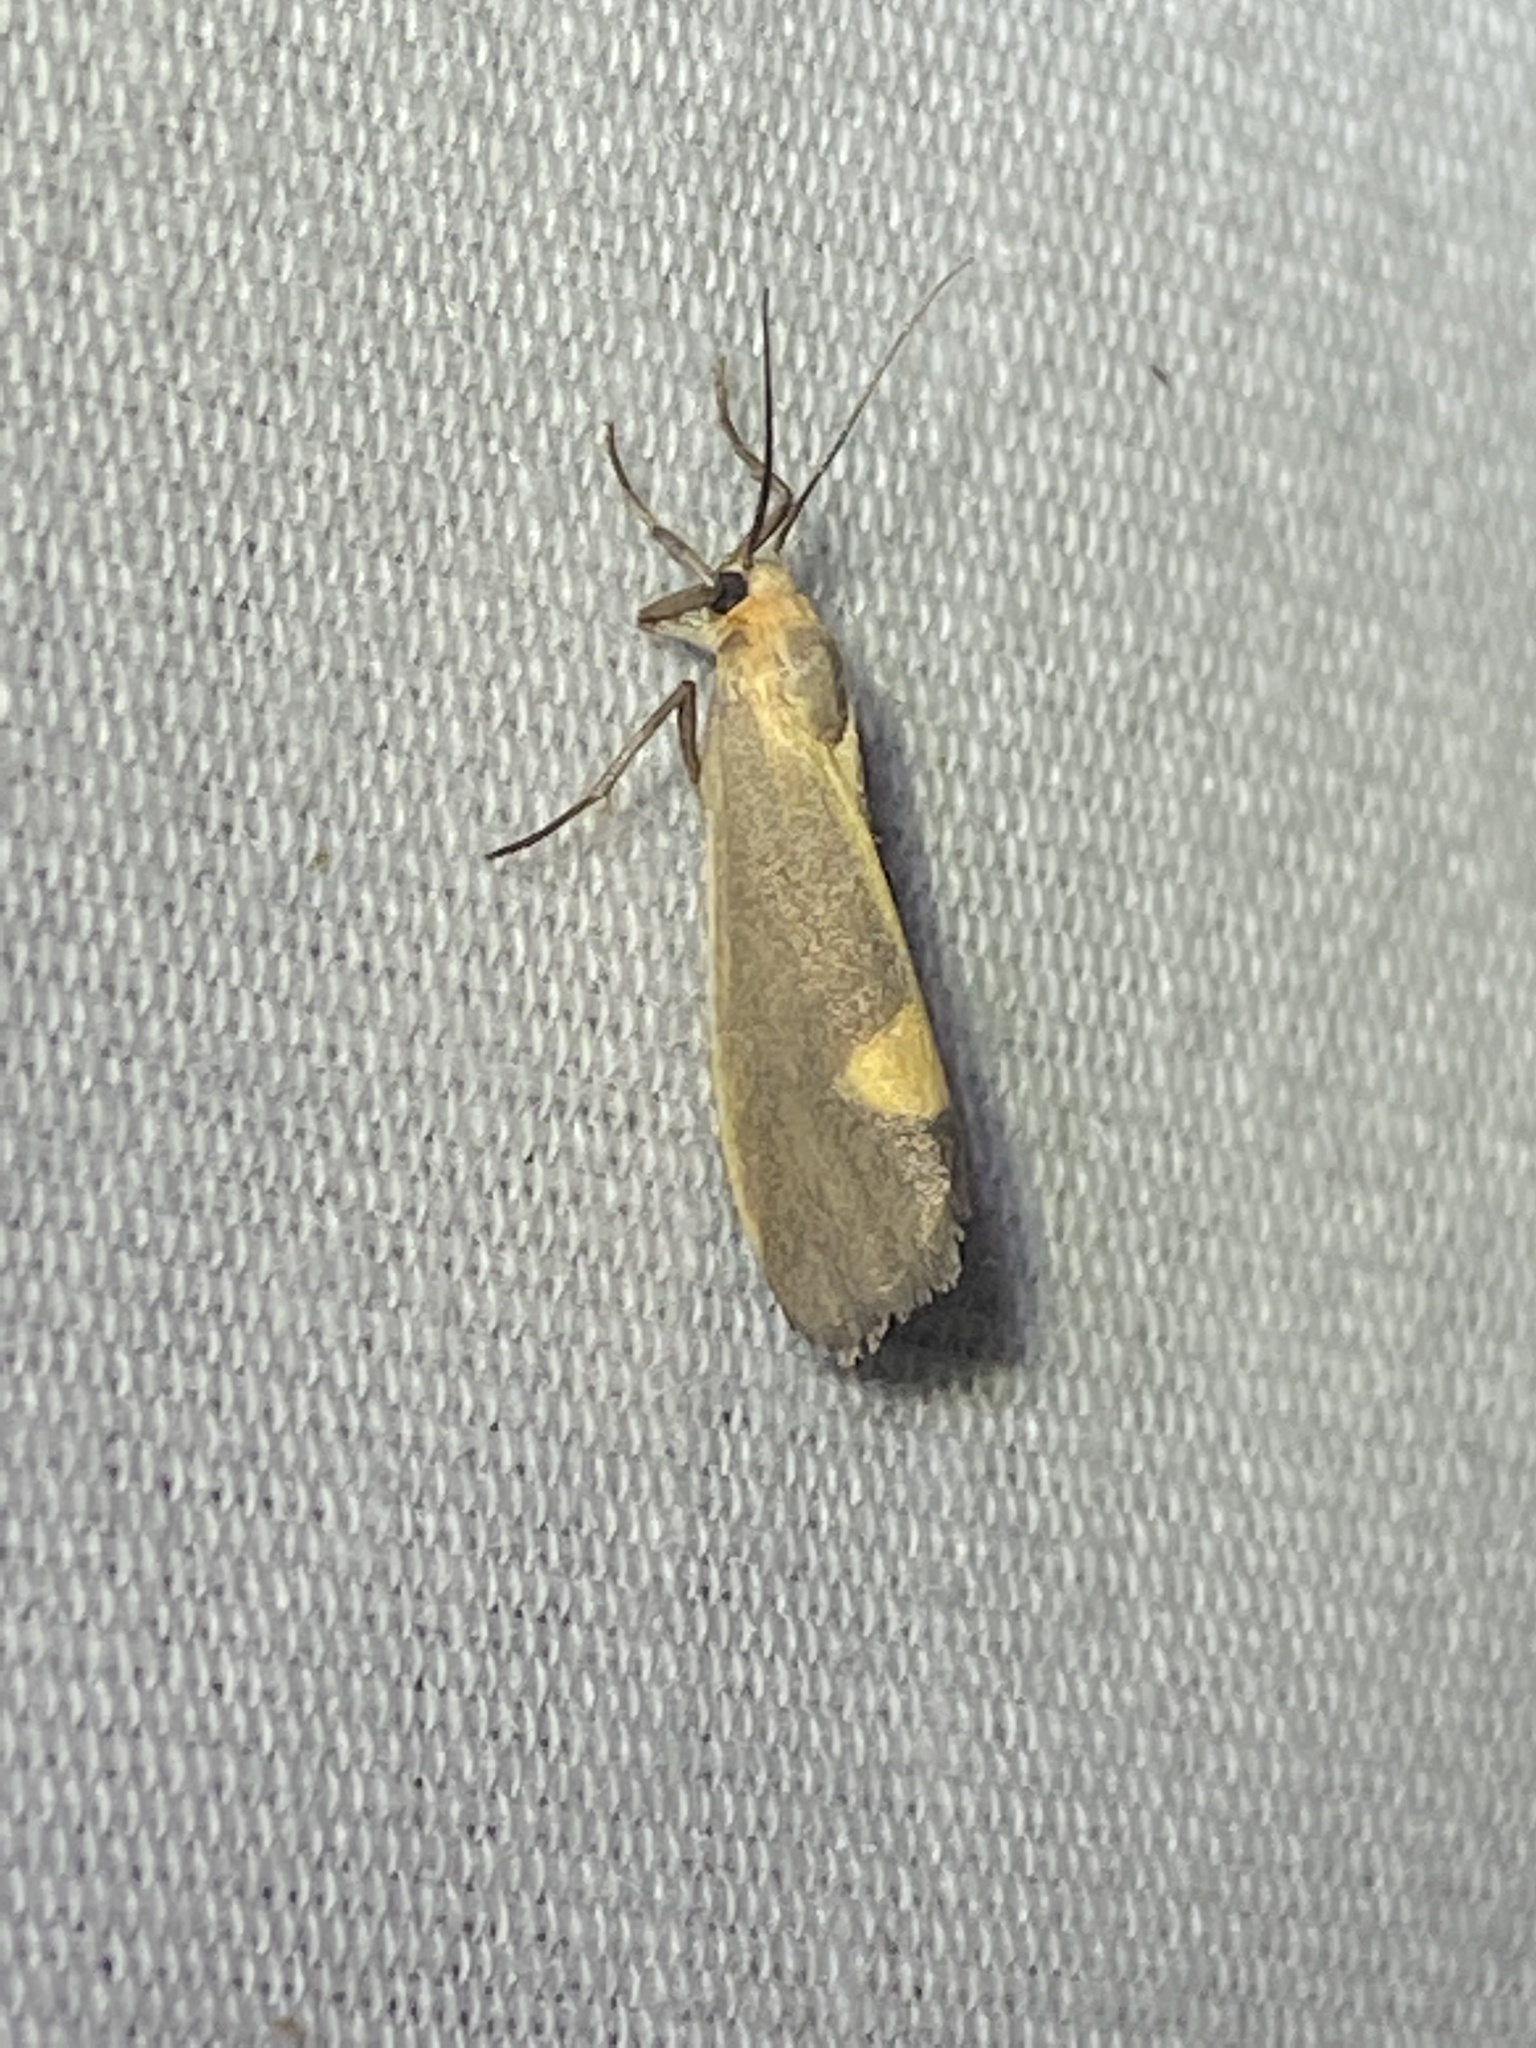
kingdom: Animalia
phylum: Arthropoda
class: Insecta
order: Lepidoptera
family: Erebidae
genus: Cisthene
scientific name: Cisthene plumbea
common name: Lead colored lichen moth
